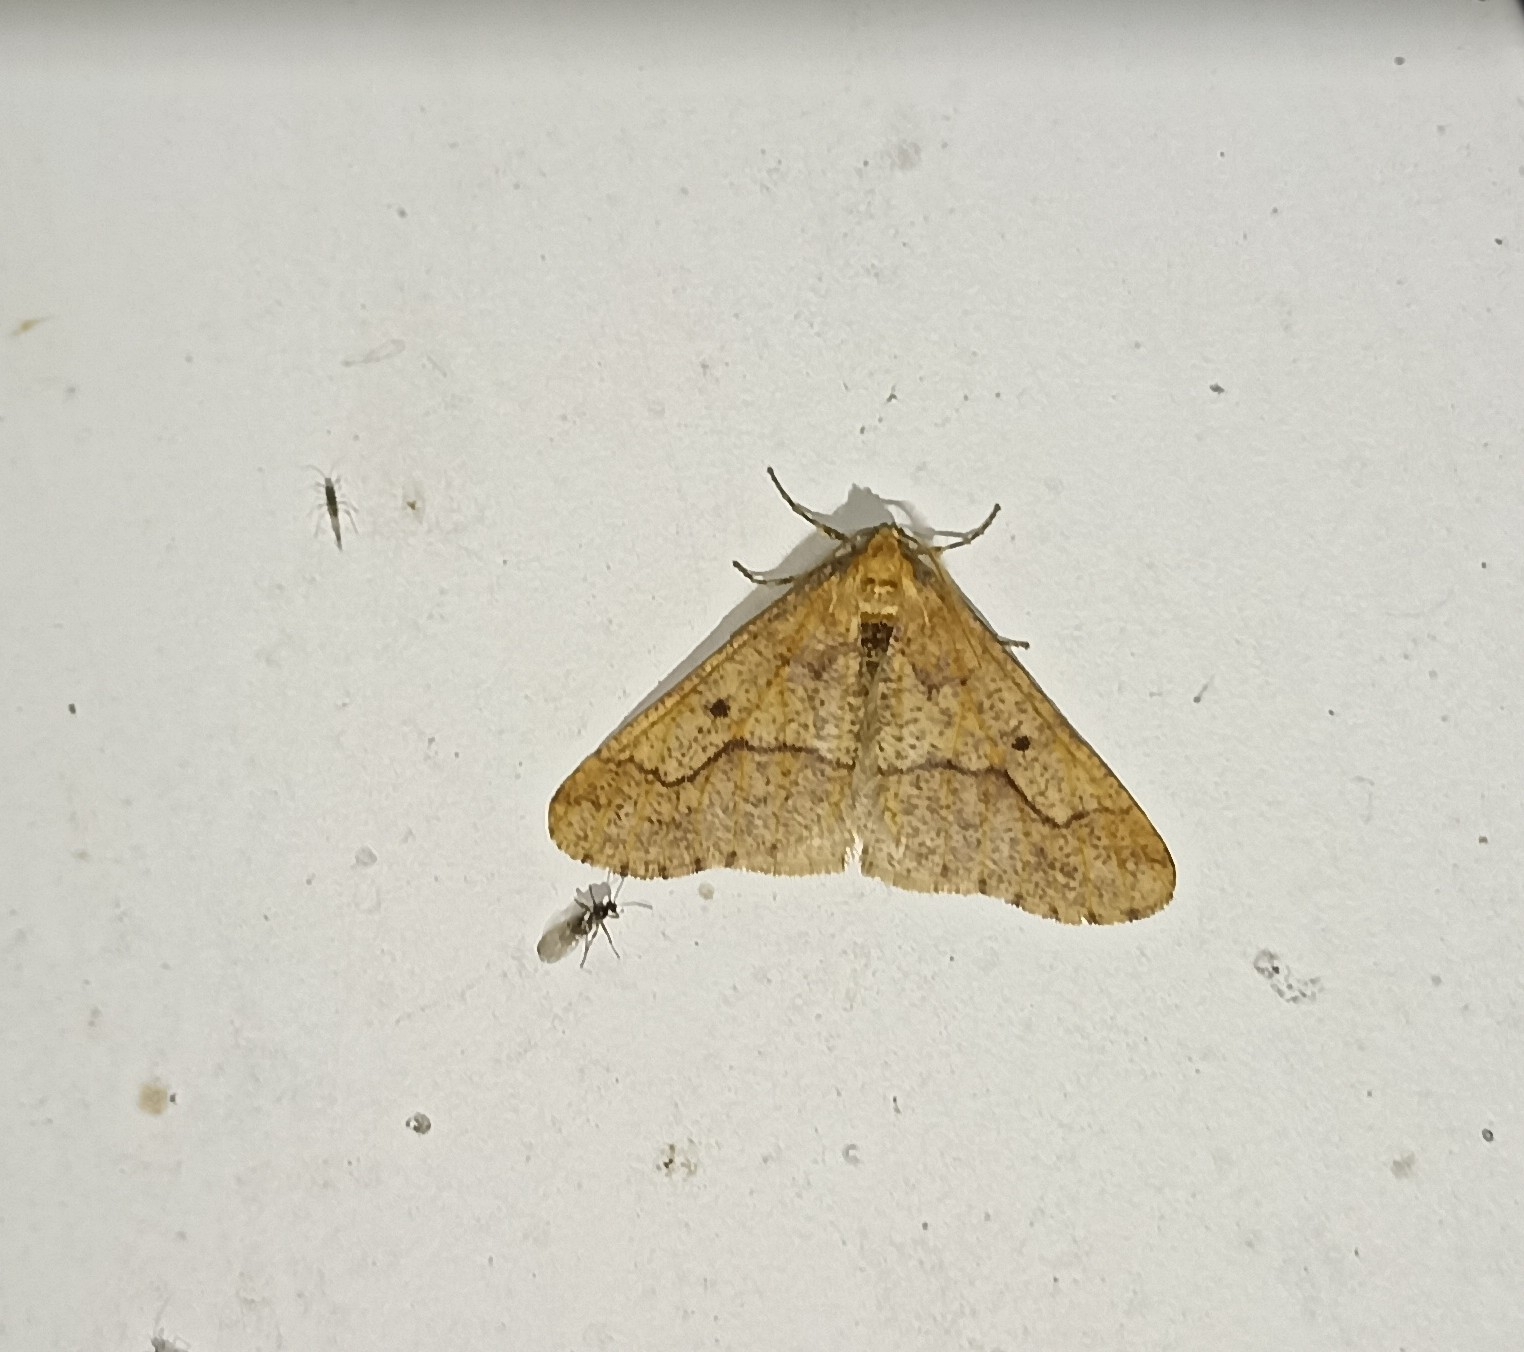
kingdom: Animalia
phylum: Arthropoda
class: Insecta
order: Lepidoptera
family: Geometridae
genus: Erannis
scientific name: Erannis defoliaria
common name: Mottled umber
